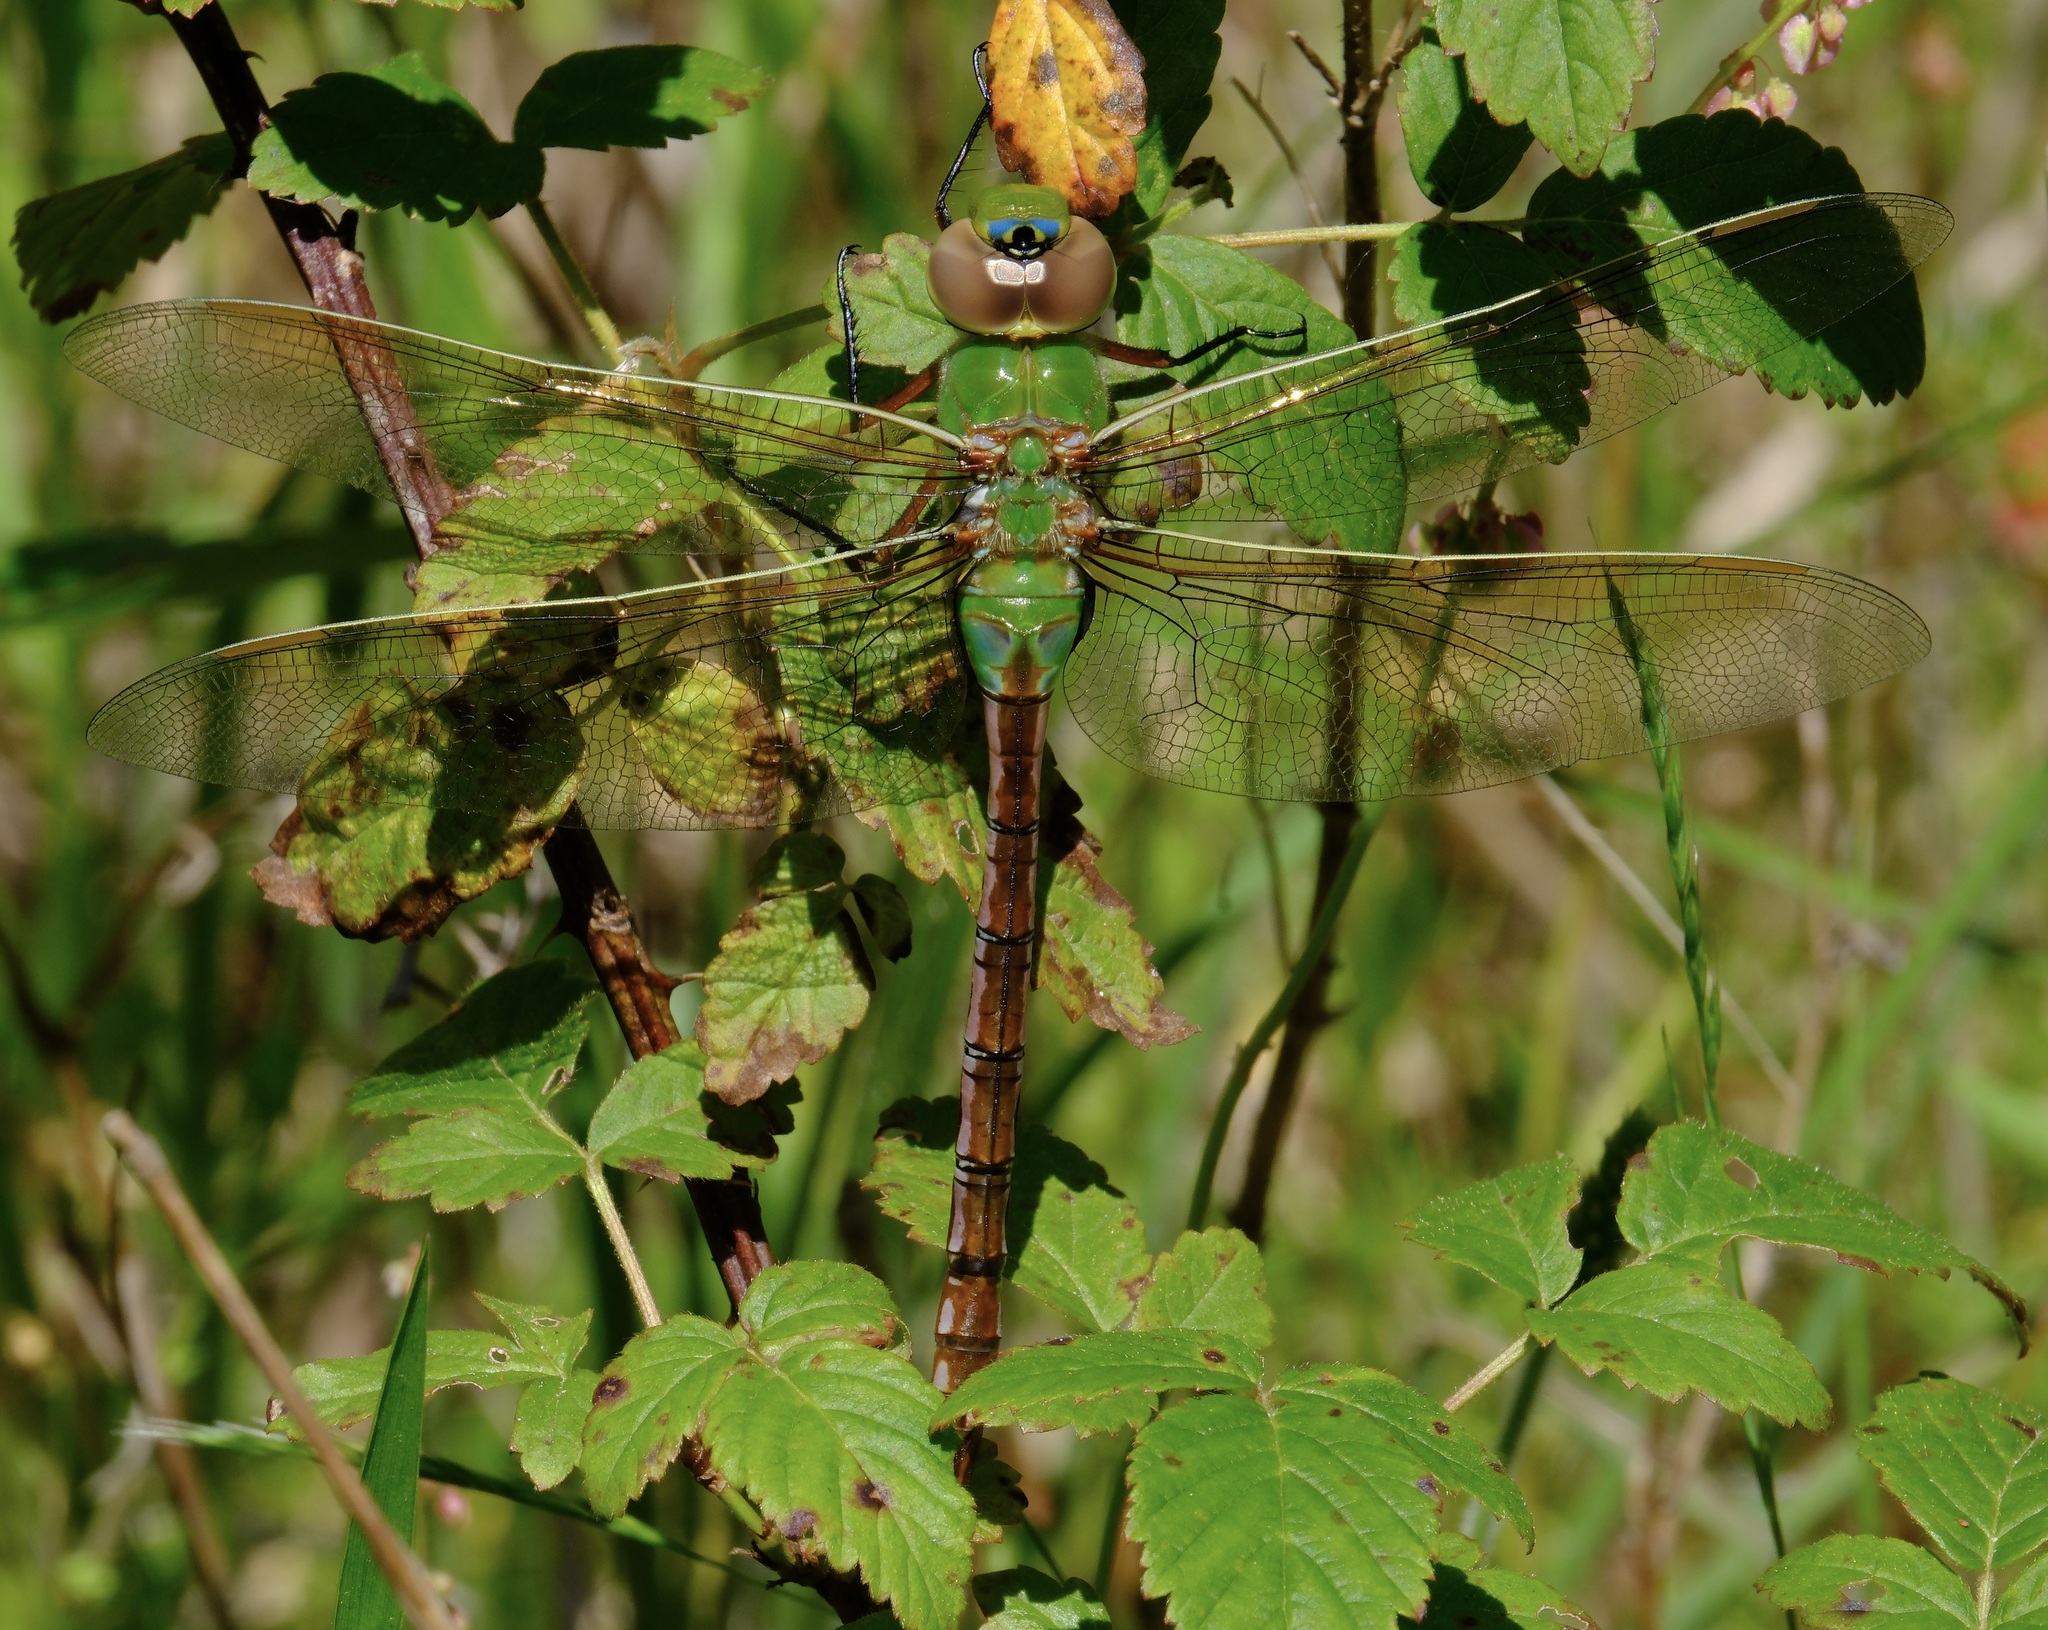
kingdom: Animalia
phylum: Arthropoda
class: Insecta
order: Odonata
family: Aeshnidae
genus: Anax
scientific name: Anax junius
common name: Common green darner
